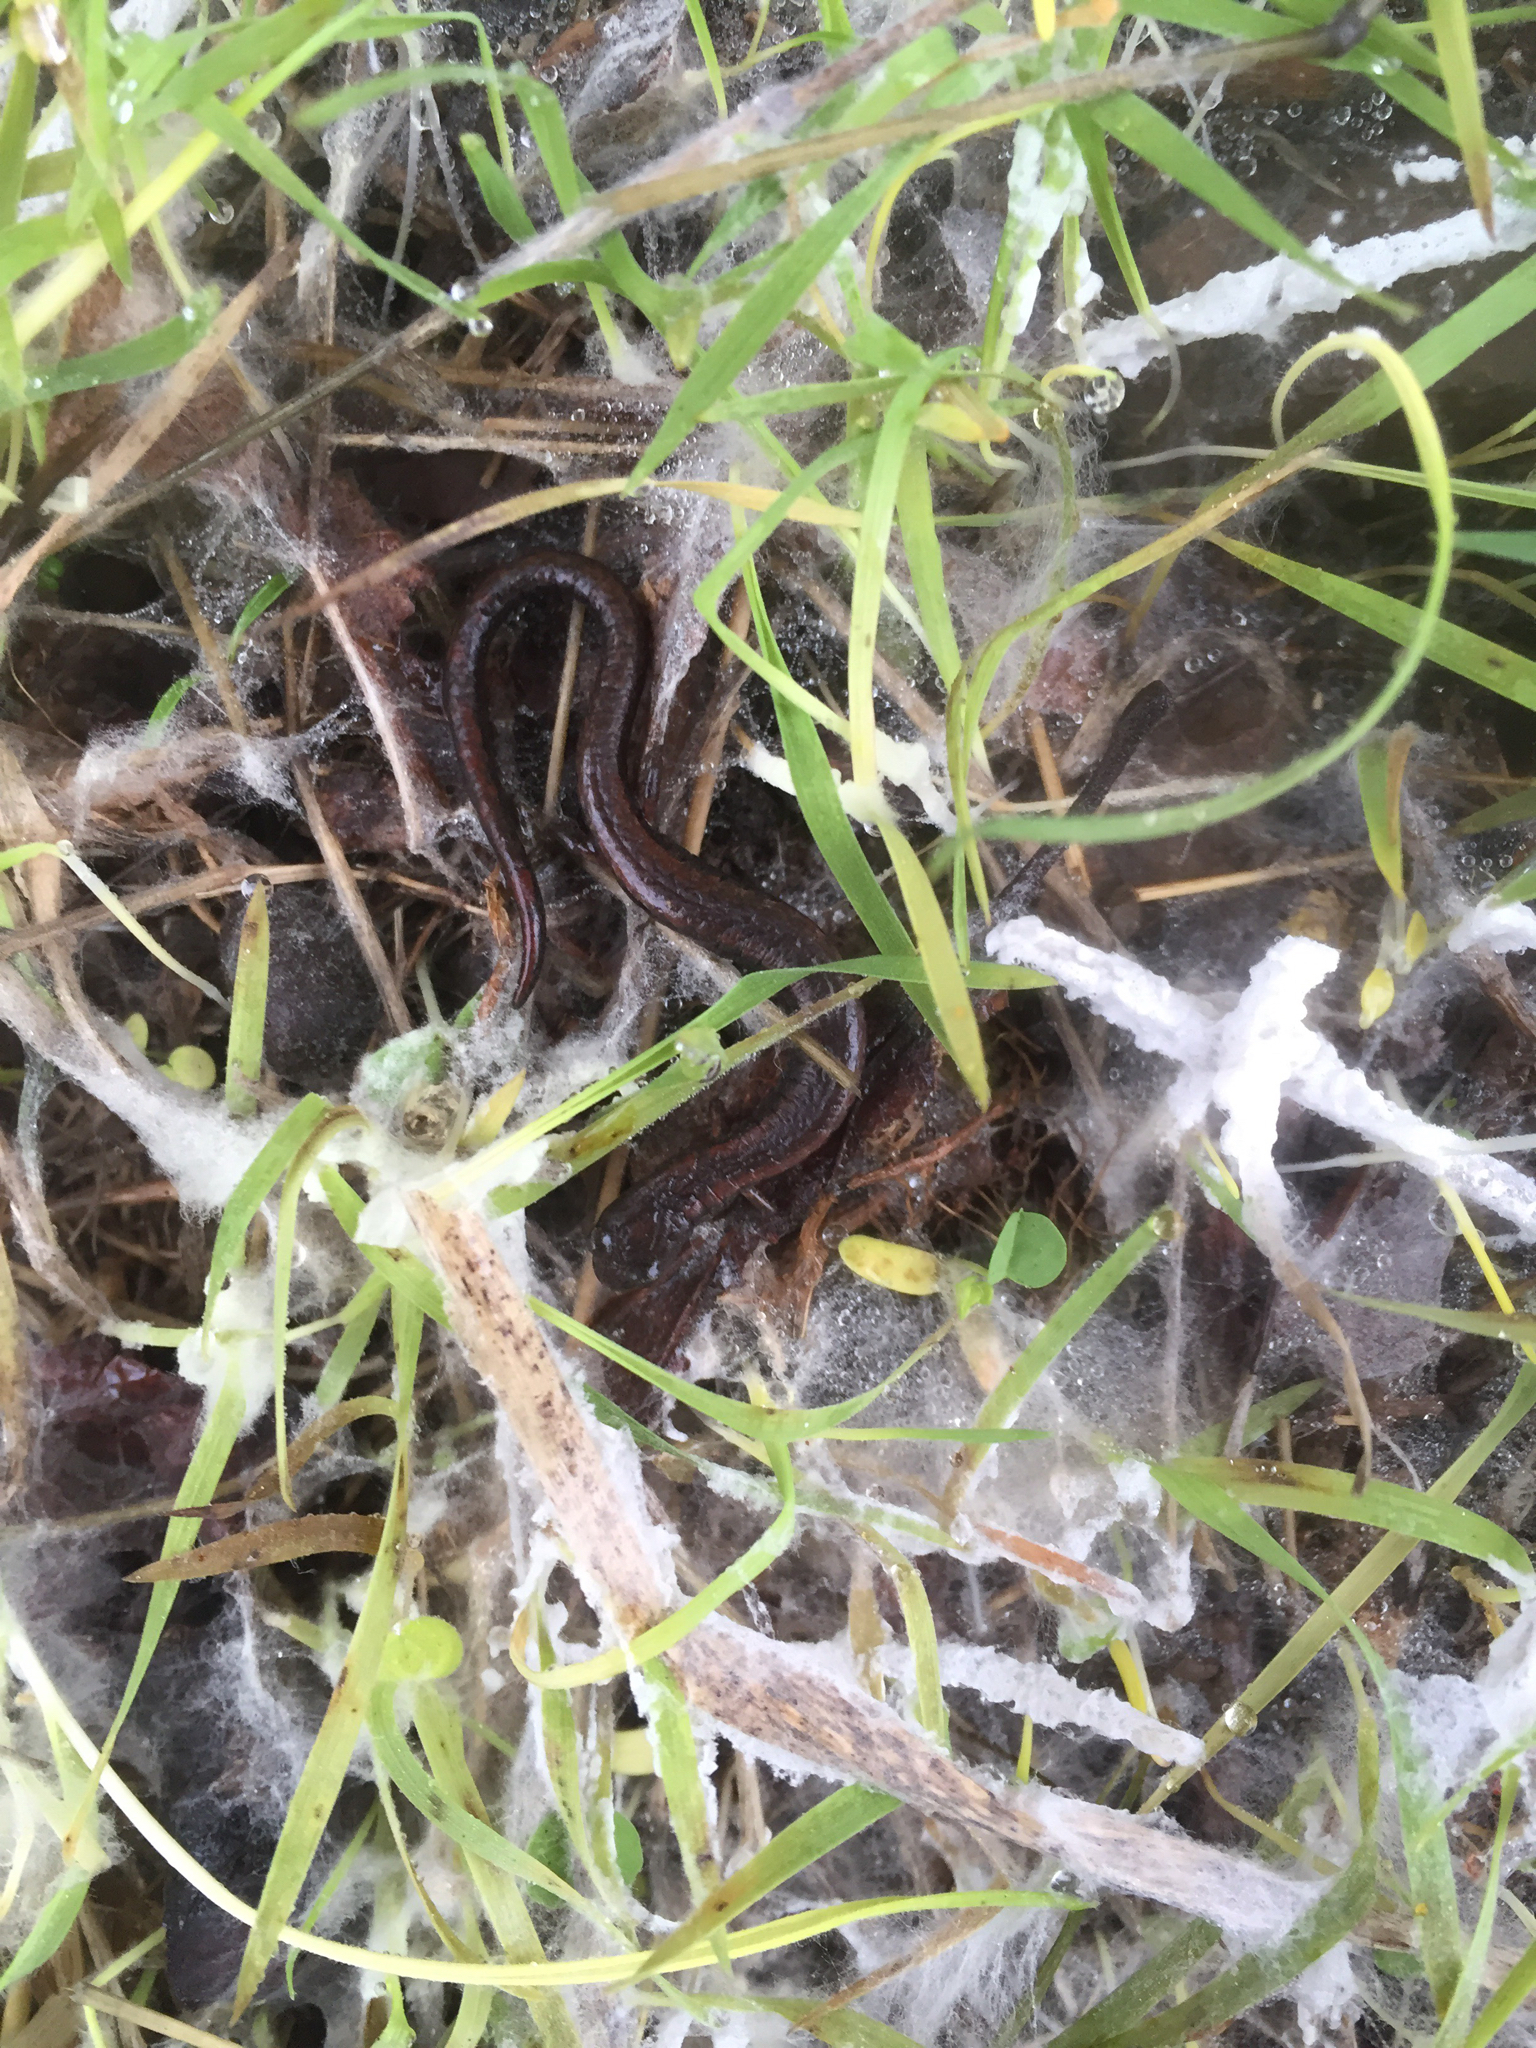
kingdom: Animalia
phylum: Chordata
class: Amphibia
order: Caudata
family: Plethodontidae
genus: Batrachoseps
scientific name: Batrachoseps attenuatus
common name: California slender salamander
